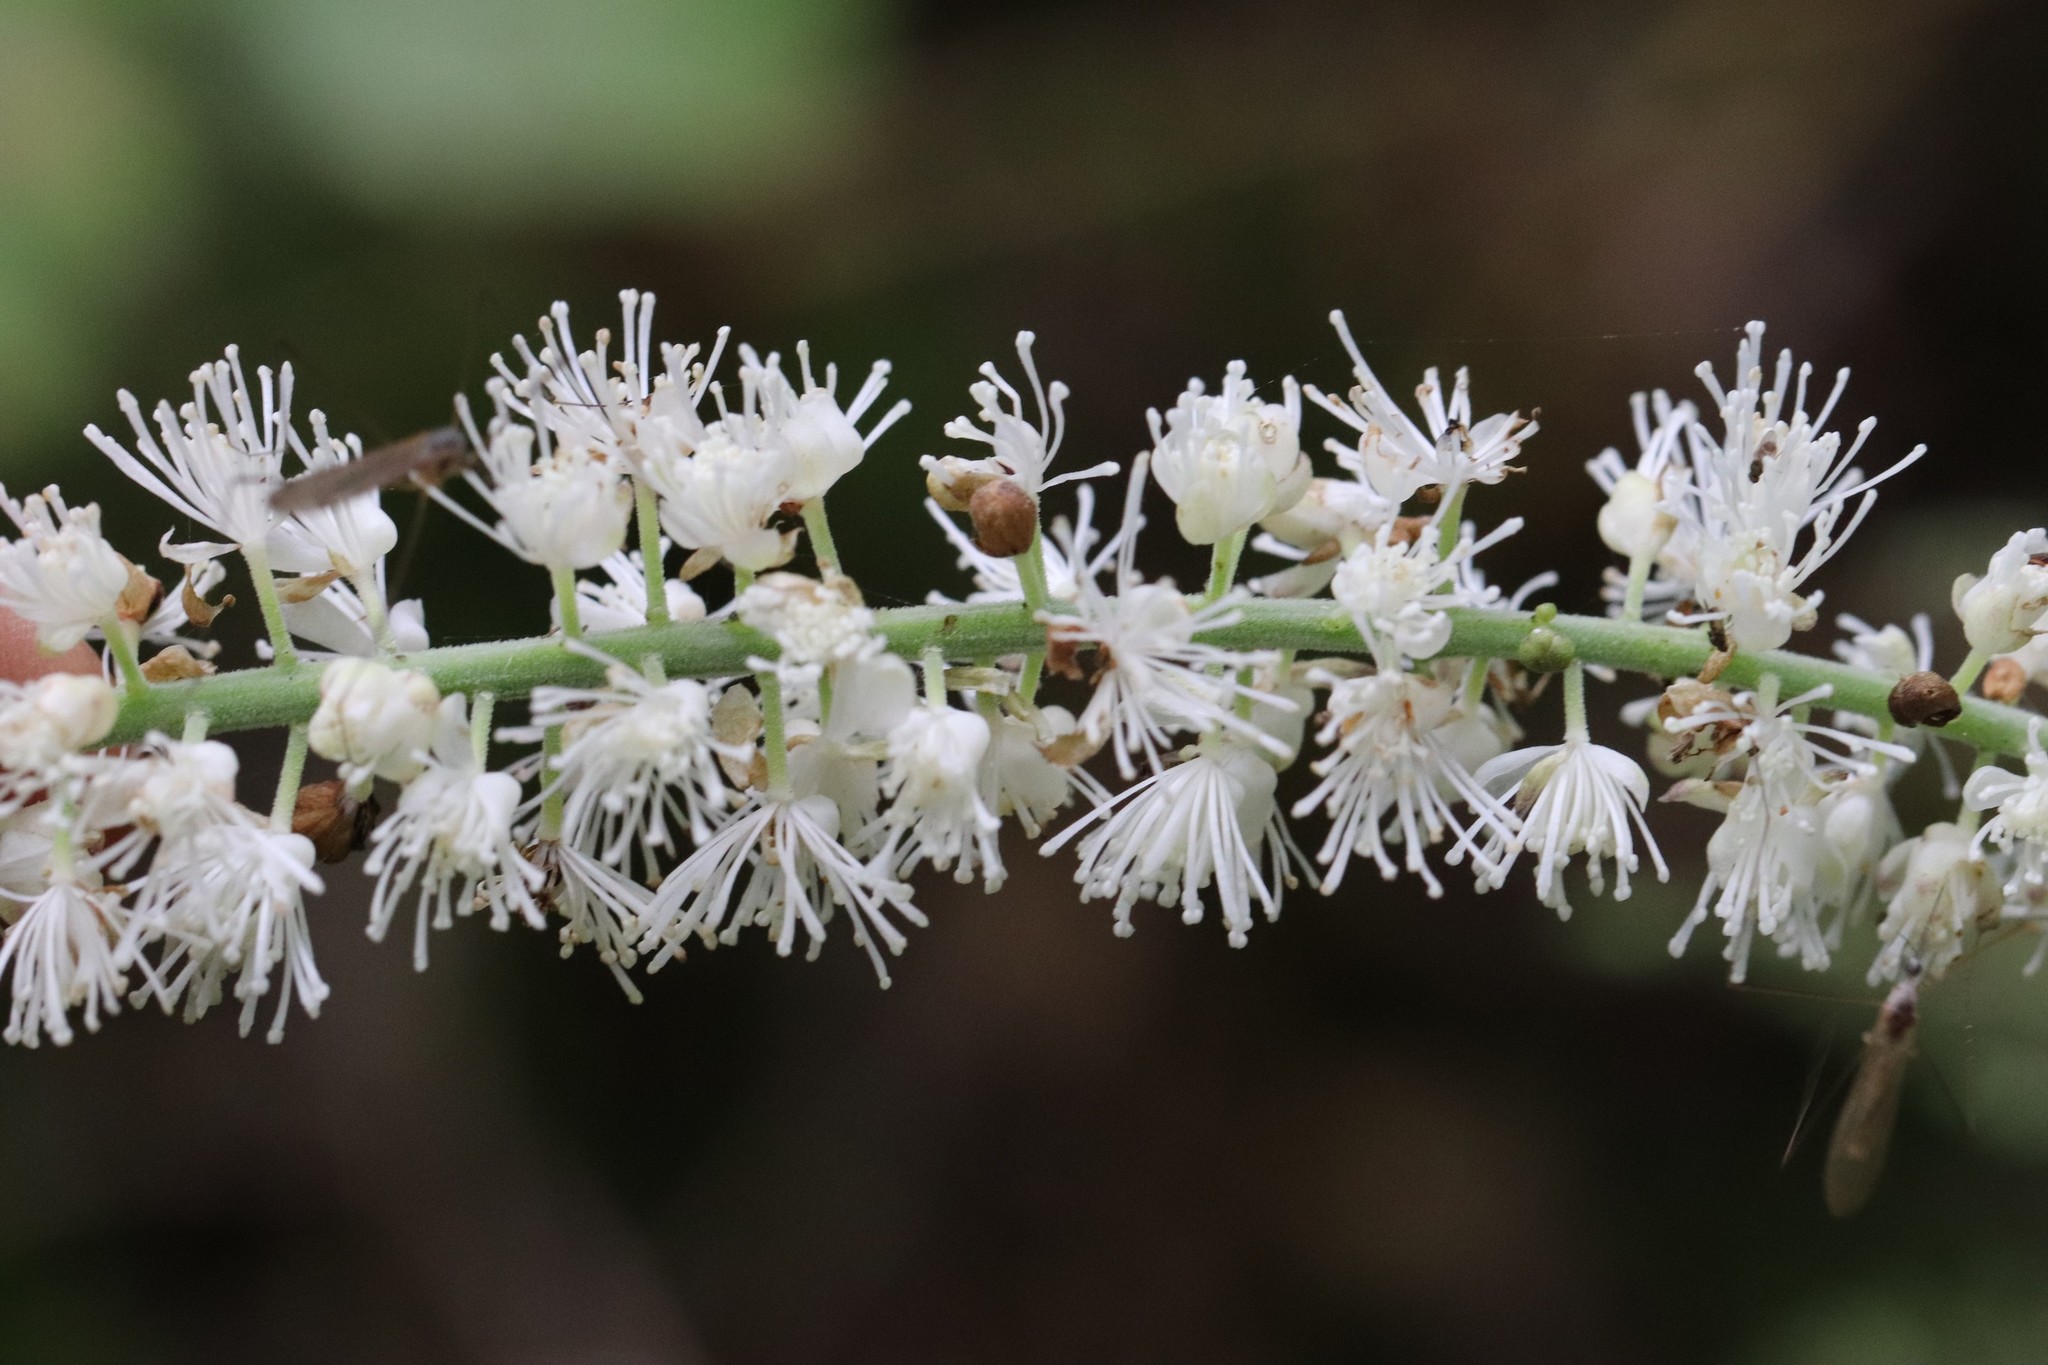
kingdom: Plantae
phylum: Tracheophyta
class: Magnoliopsida
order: Ranunculales
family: Ranunculaceae
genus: Actaea
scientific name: Actaea simplex
